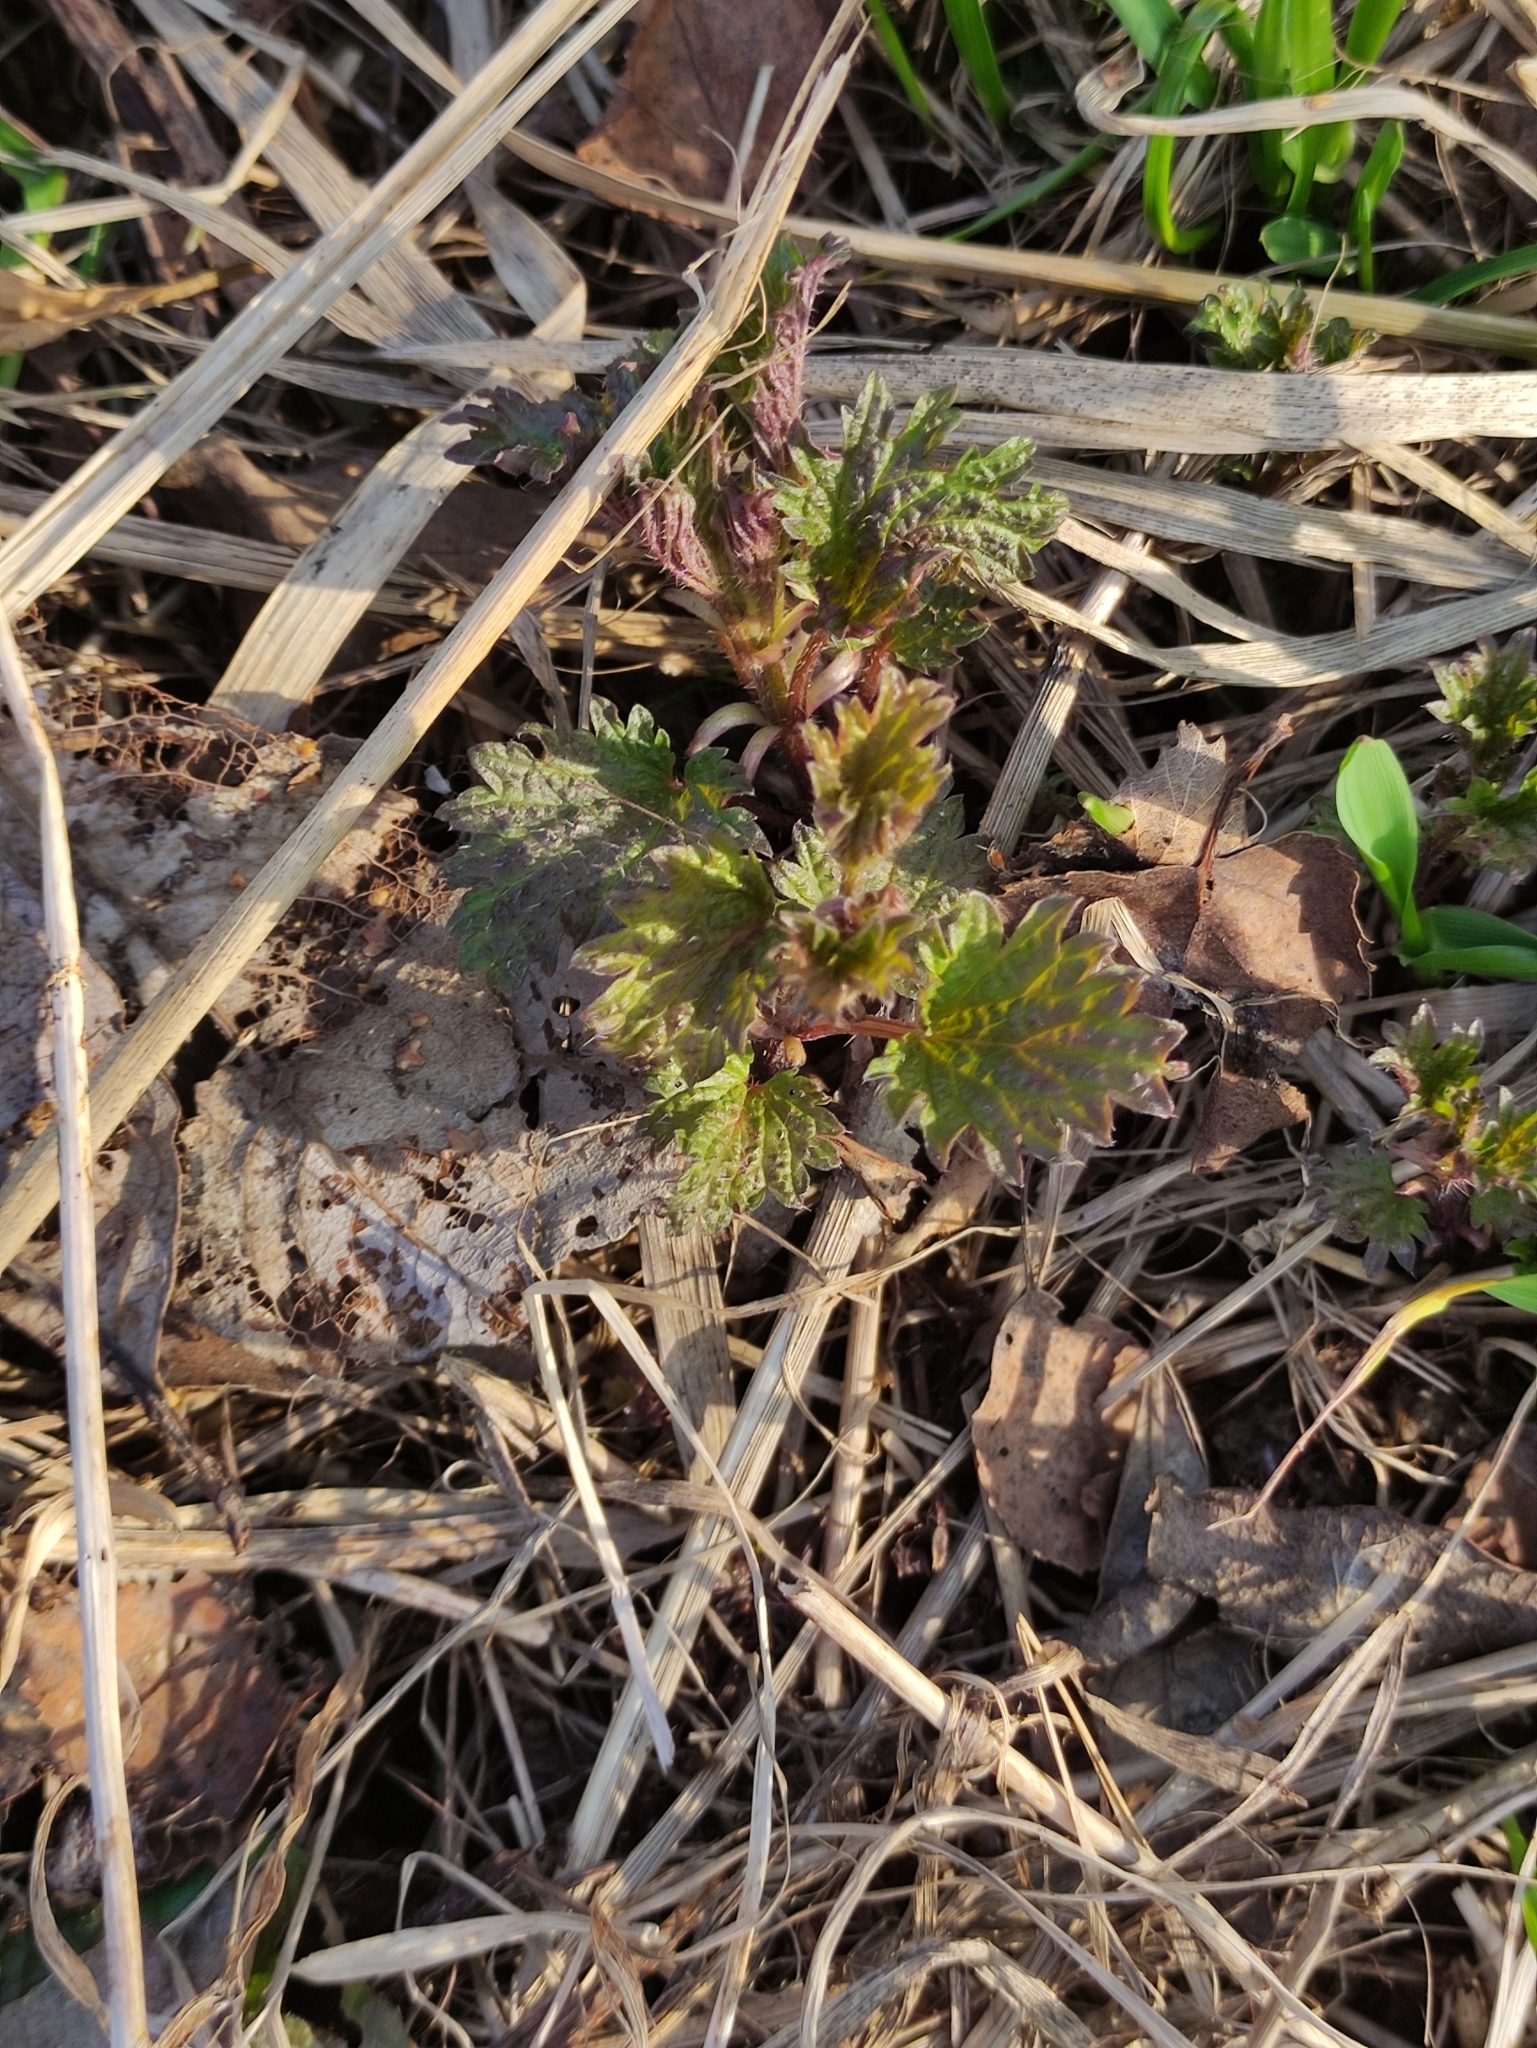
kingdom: Plantae
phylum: Tracheophyta
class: Magnoliopsida
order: Rosales
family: Urticaceae
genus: Urtica
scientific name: Urtica dioica
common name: Common nettle
